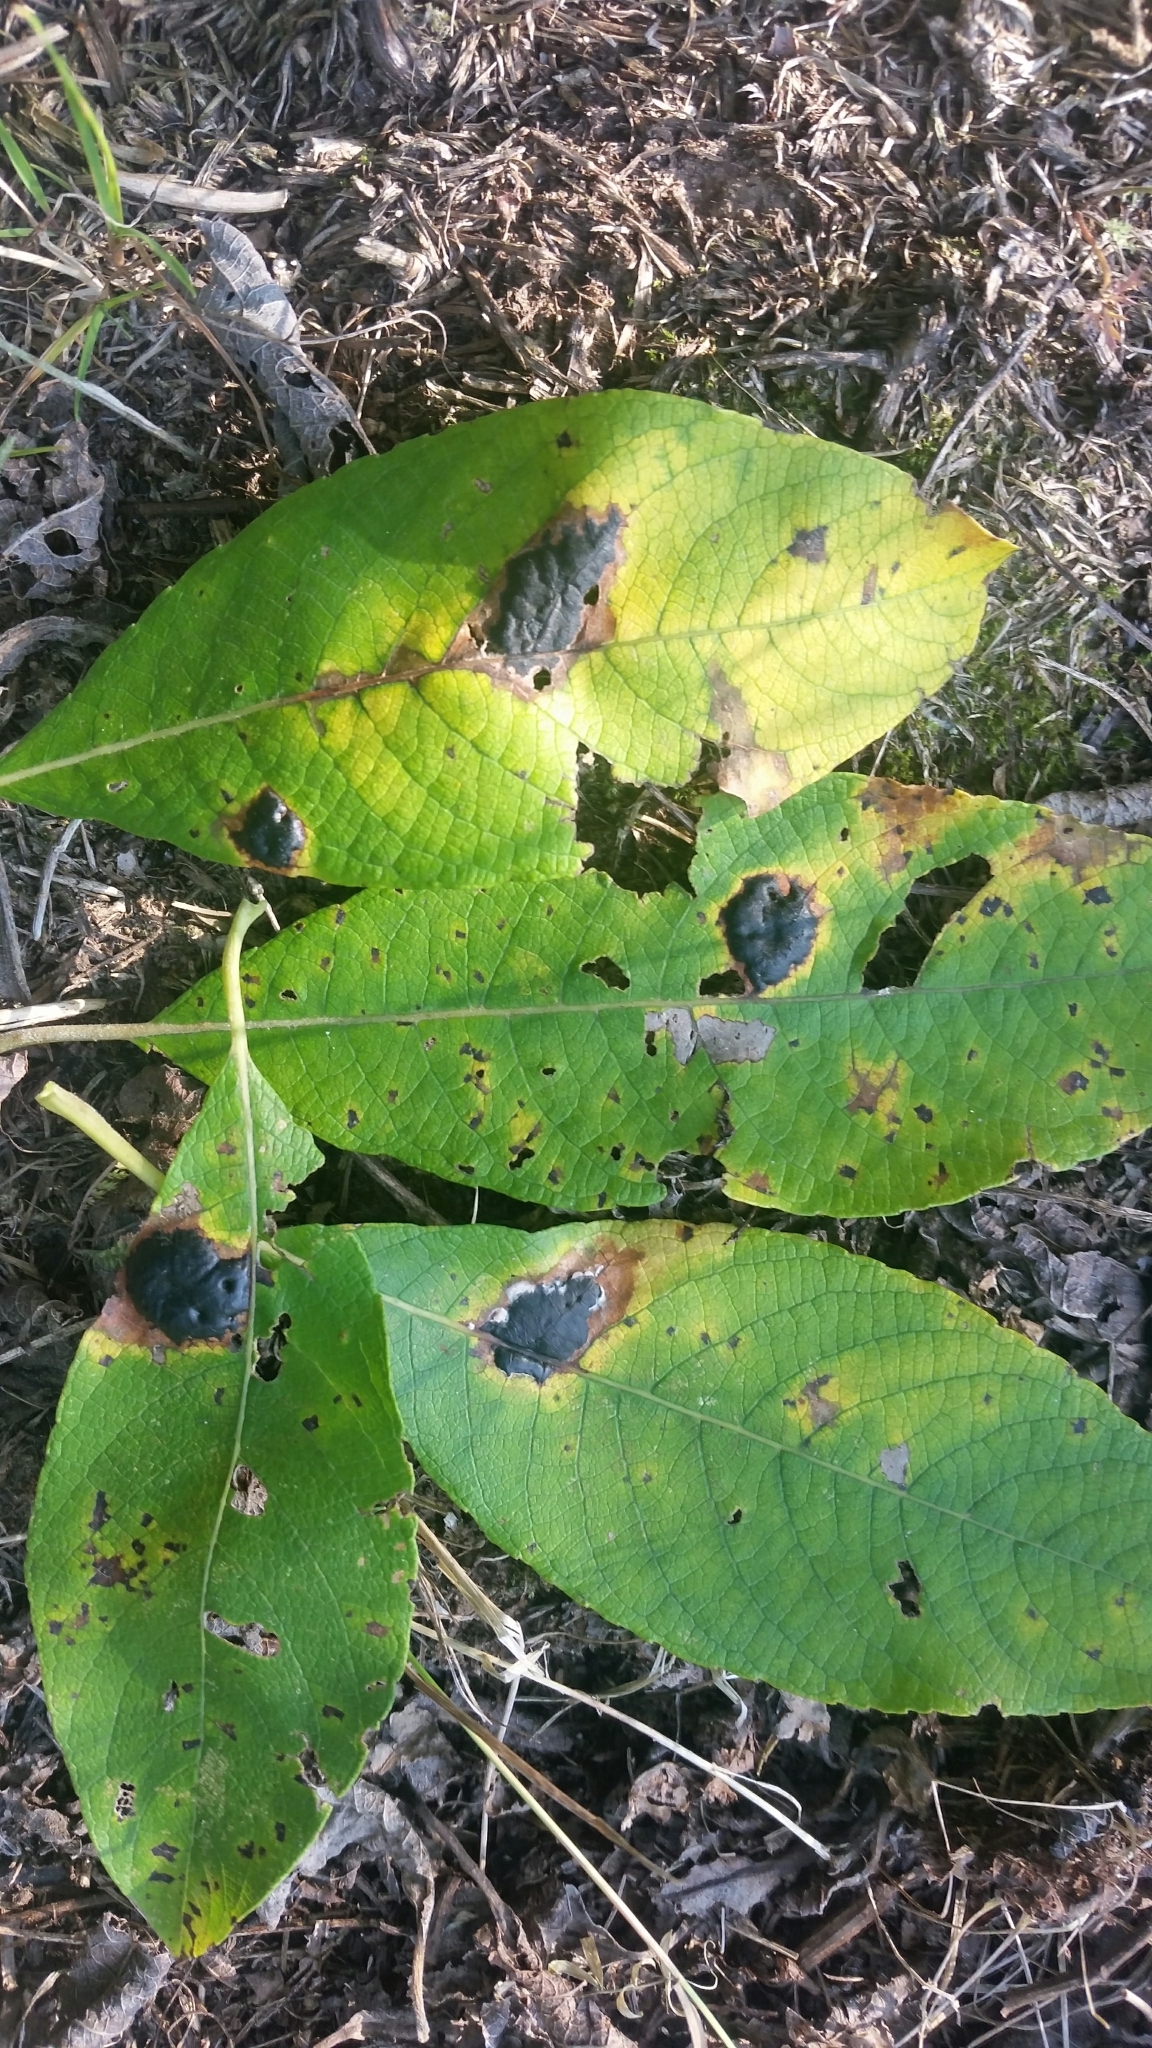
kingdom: Fungi
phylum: Ascomycota
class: Leotiomycetes
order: Rhytismatales
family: Rhytismataceae
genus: Rhytisma
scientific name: Rhytisma salicinum
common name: Willow tarspot
